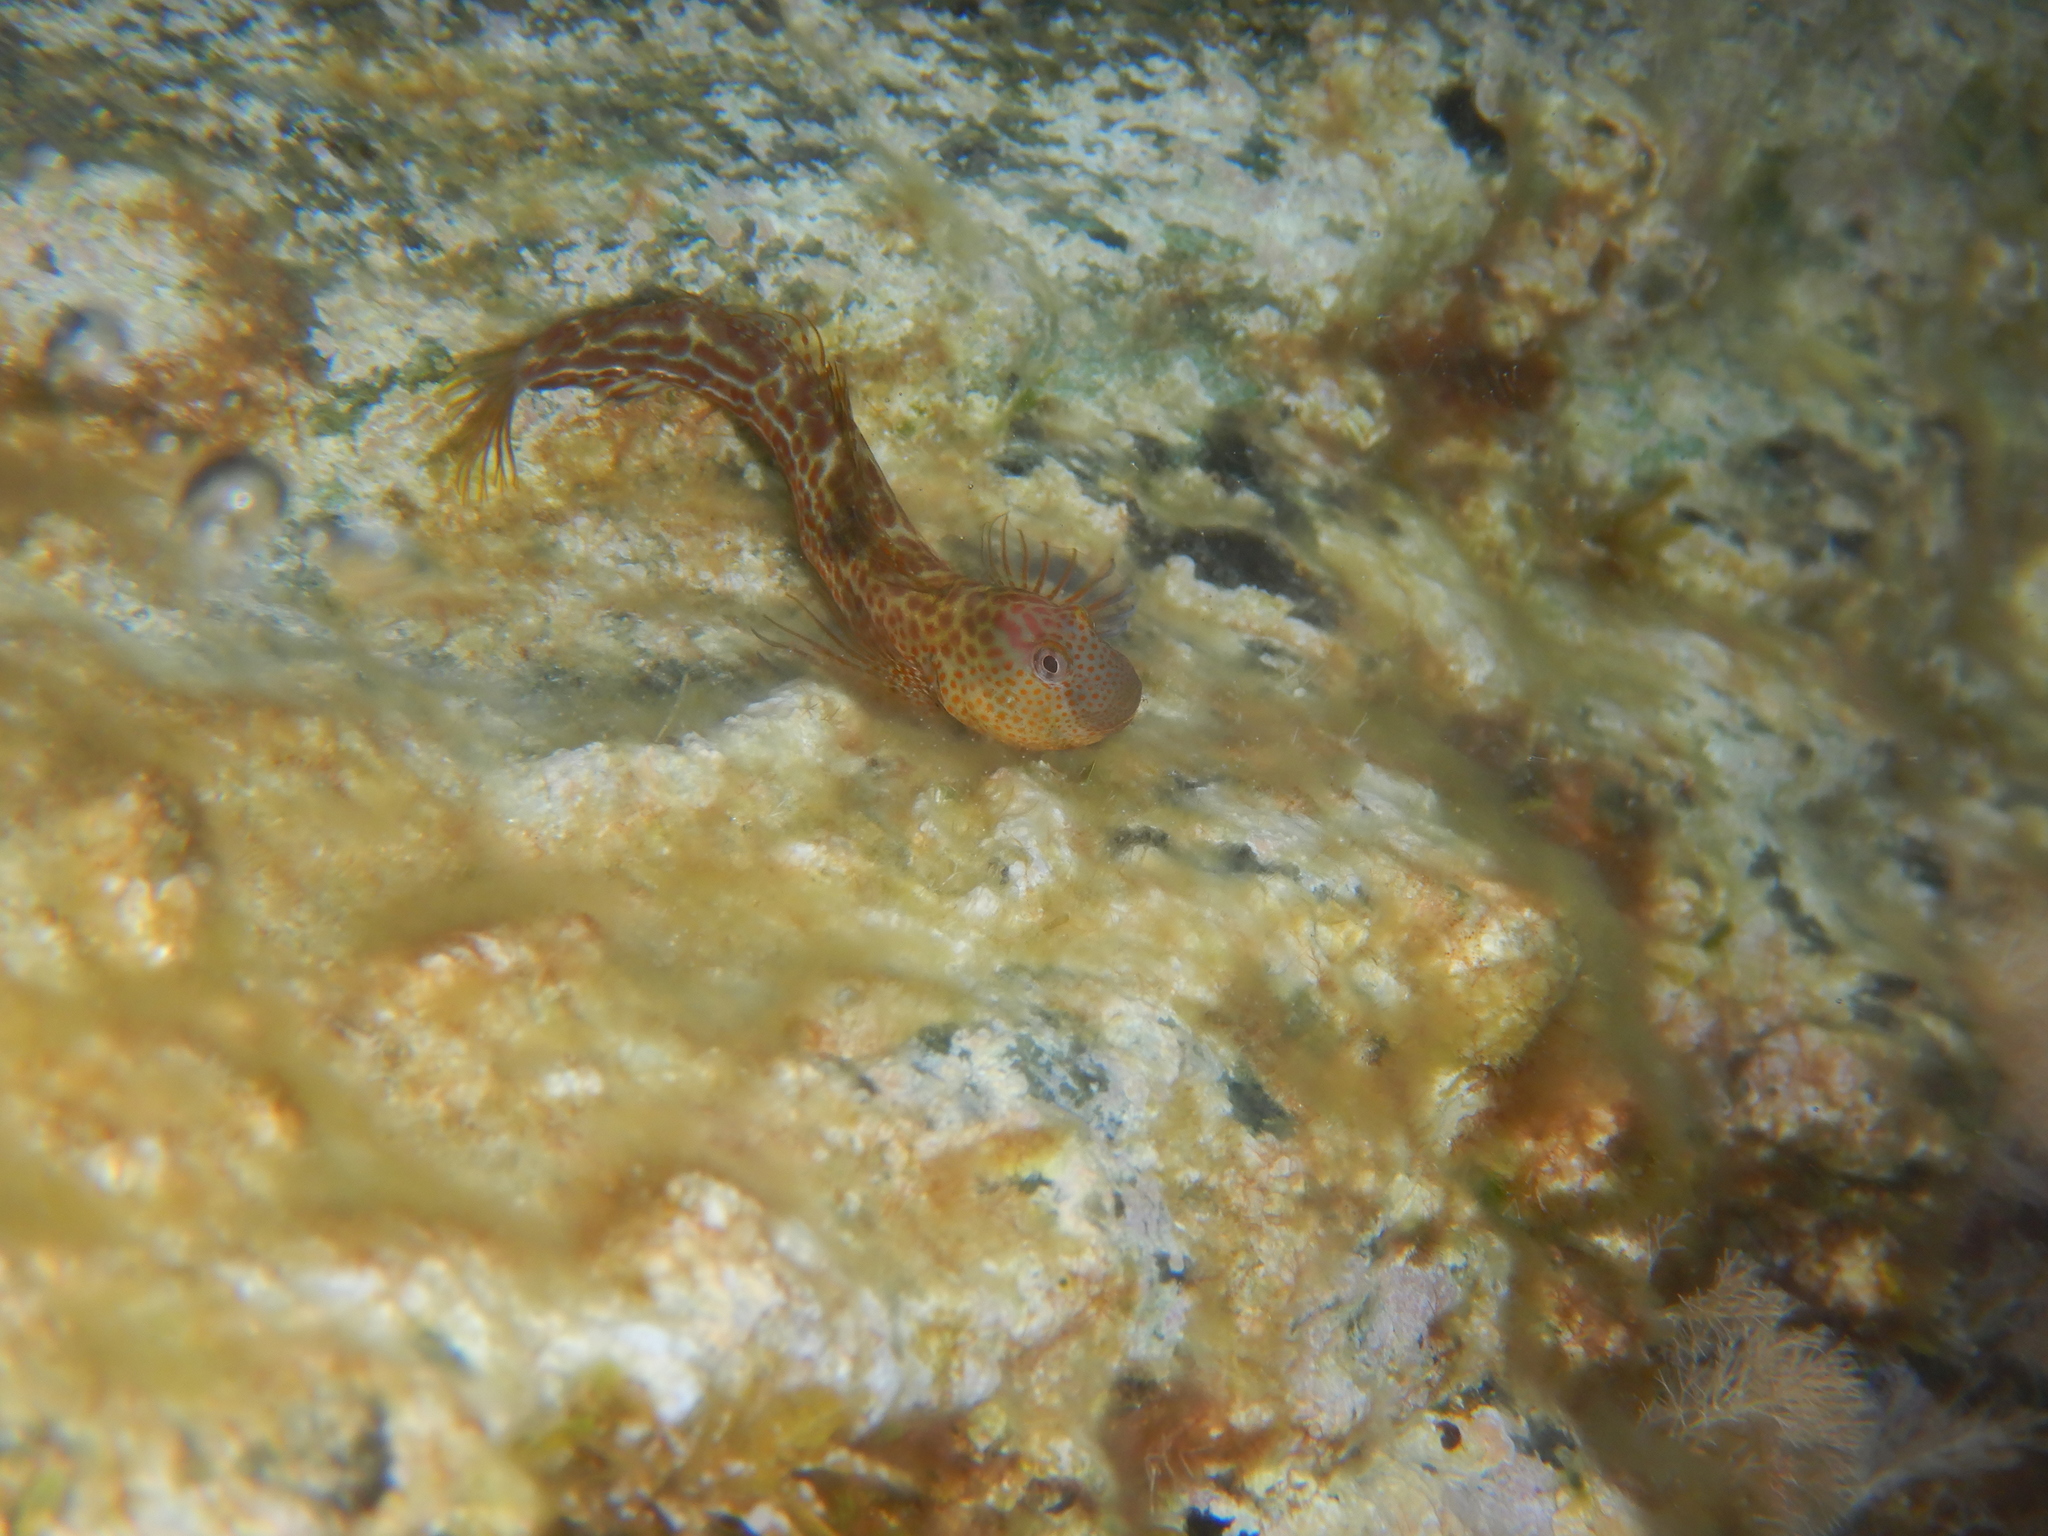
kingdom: Animalia
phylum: Chordata
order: Perciformes
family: Blenniidae
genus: Microlipophrys
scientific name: Microlipophrys canevae
